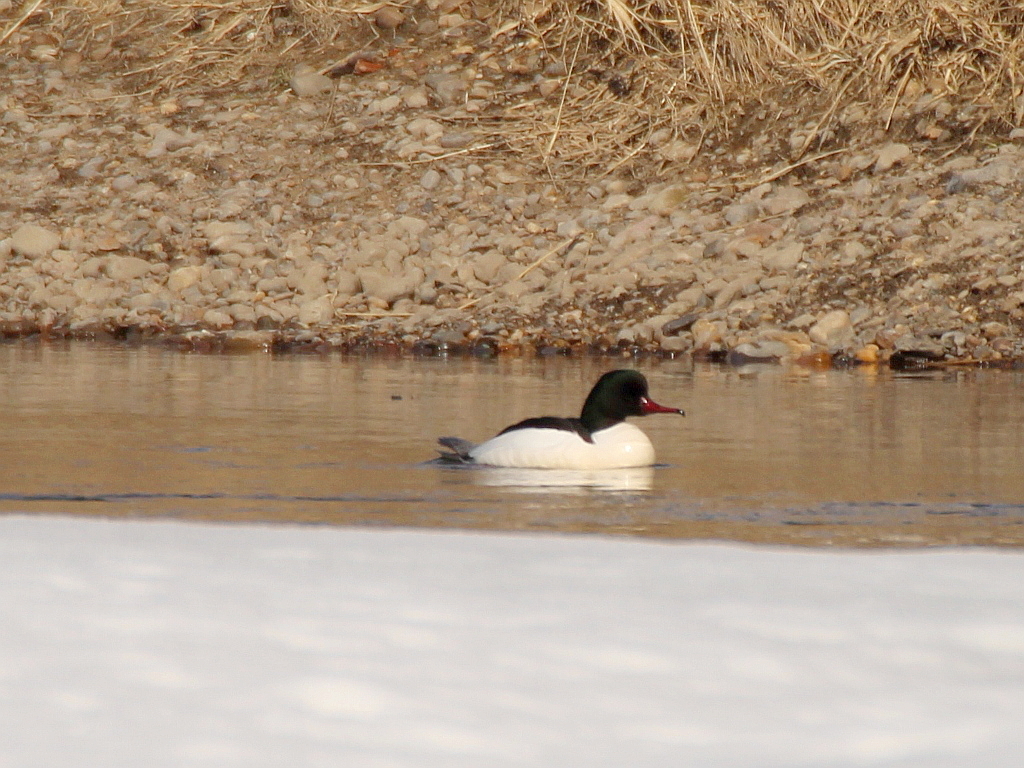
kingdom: Animalia
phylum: Chordata
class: Aves
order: Anseriformes
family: Anatidae
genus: Mergus
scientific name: Mergus merganser
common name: Common merganser
